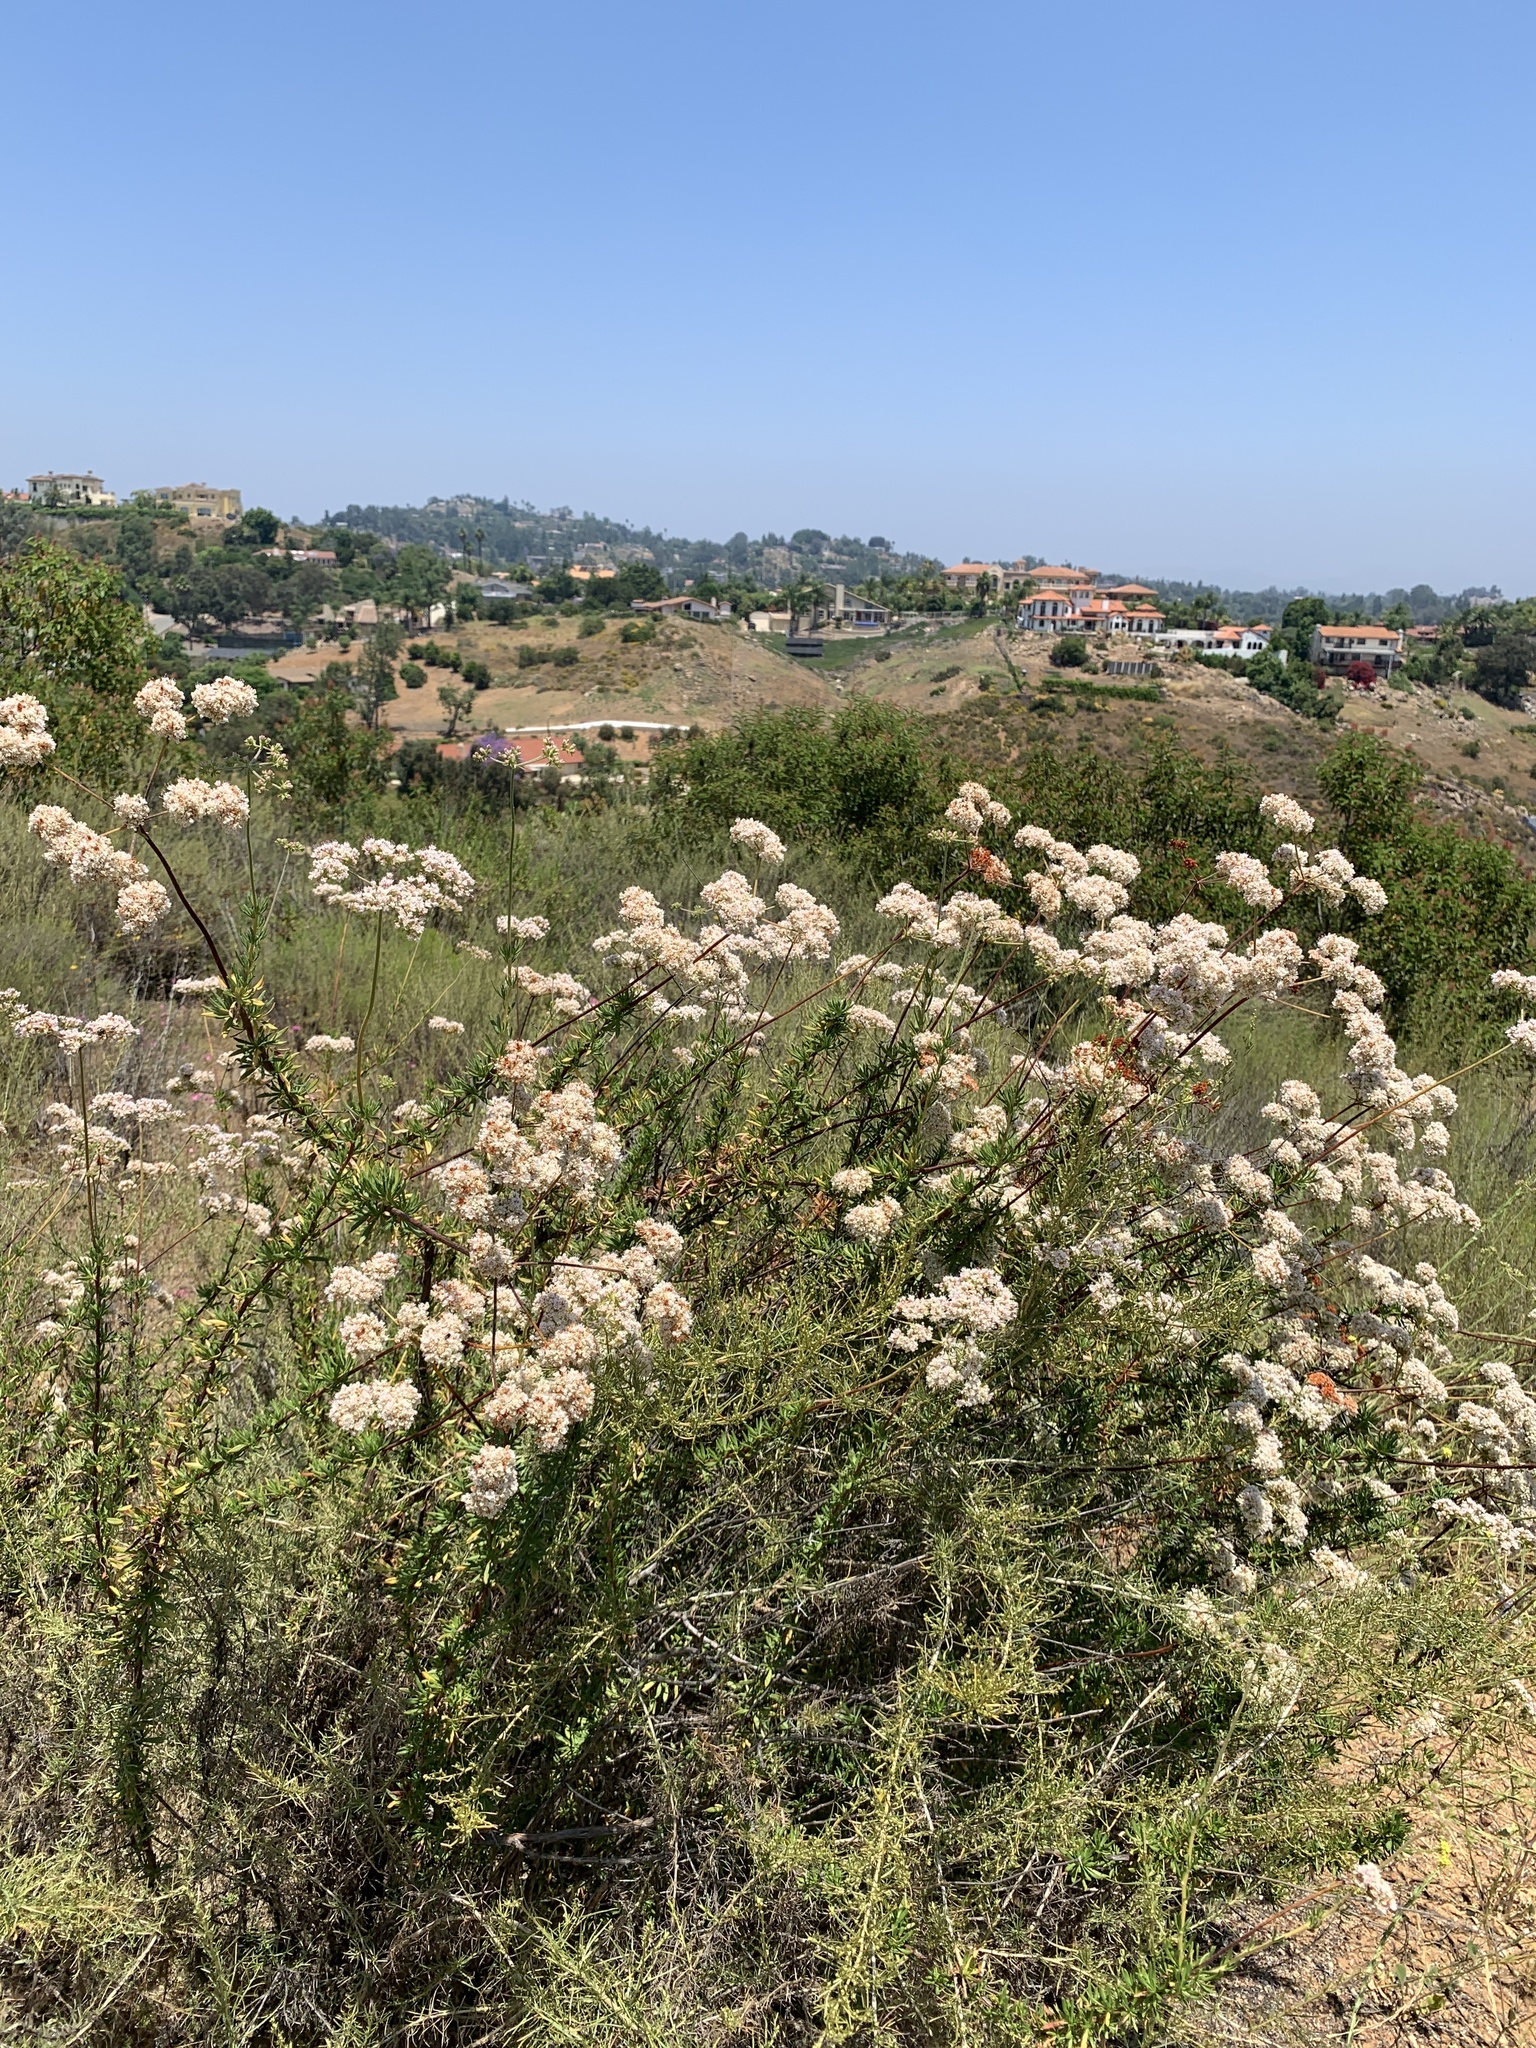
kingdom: Plantae
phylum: Tracheophyta
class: Magnoliopsida
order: Caryophyllales
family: Polygonaceae
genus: Eriogonum
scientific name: Eriogonum fasciculatum
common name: California wild buckwheat
